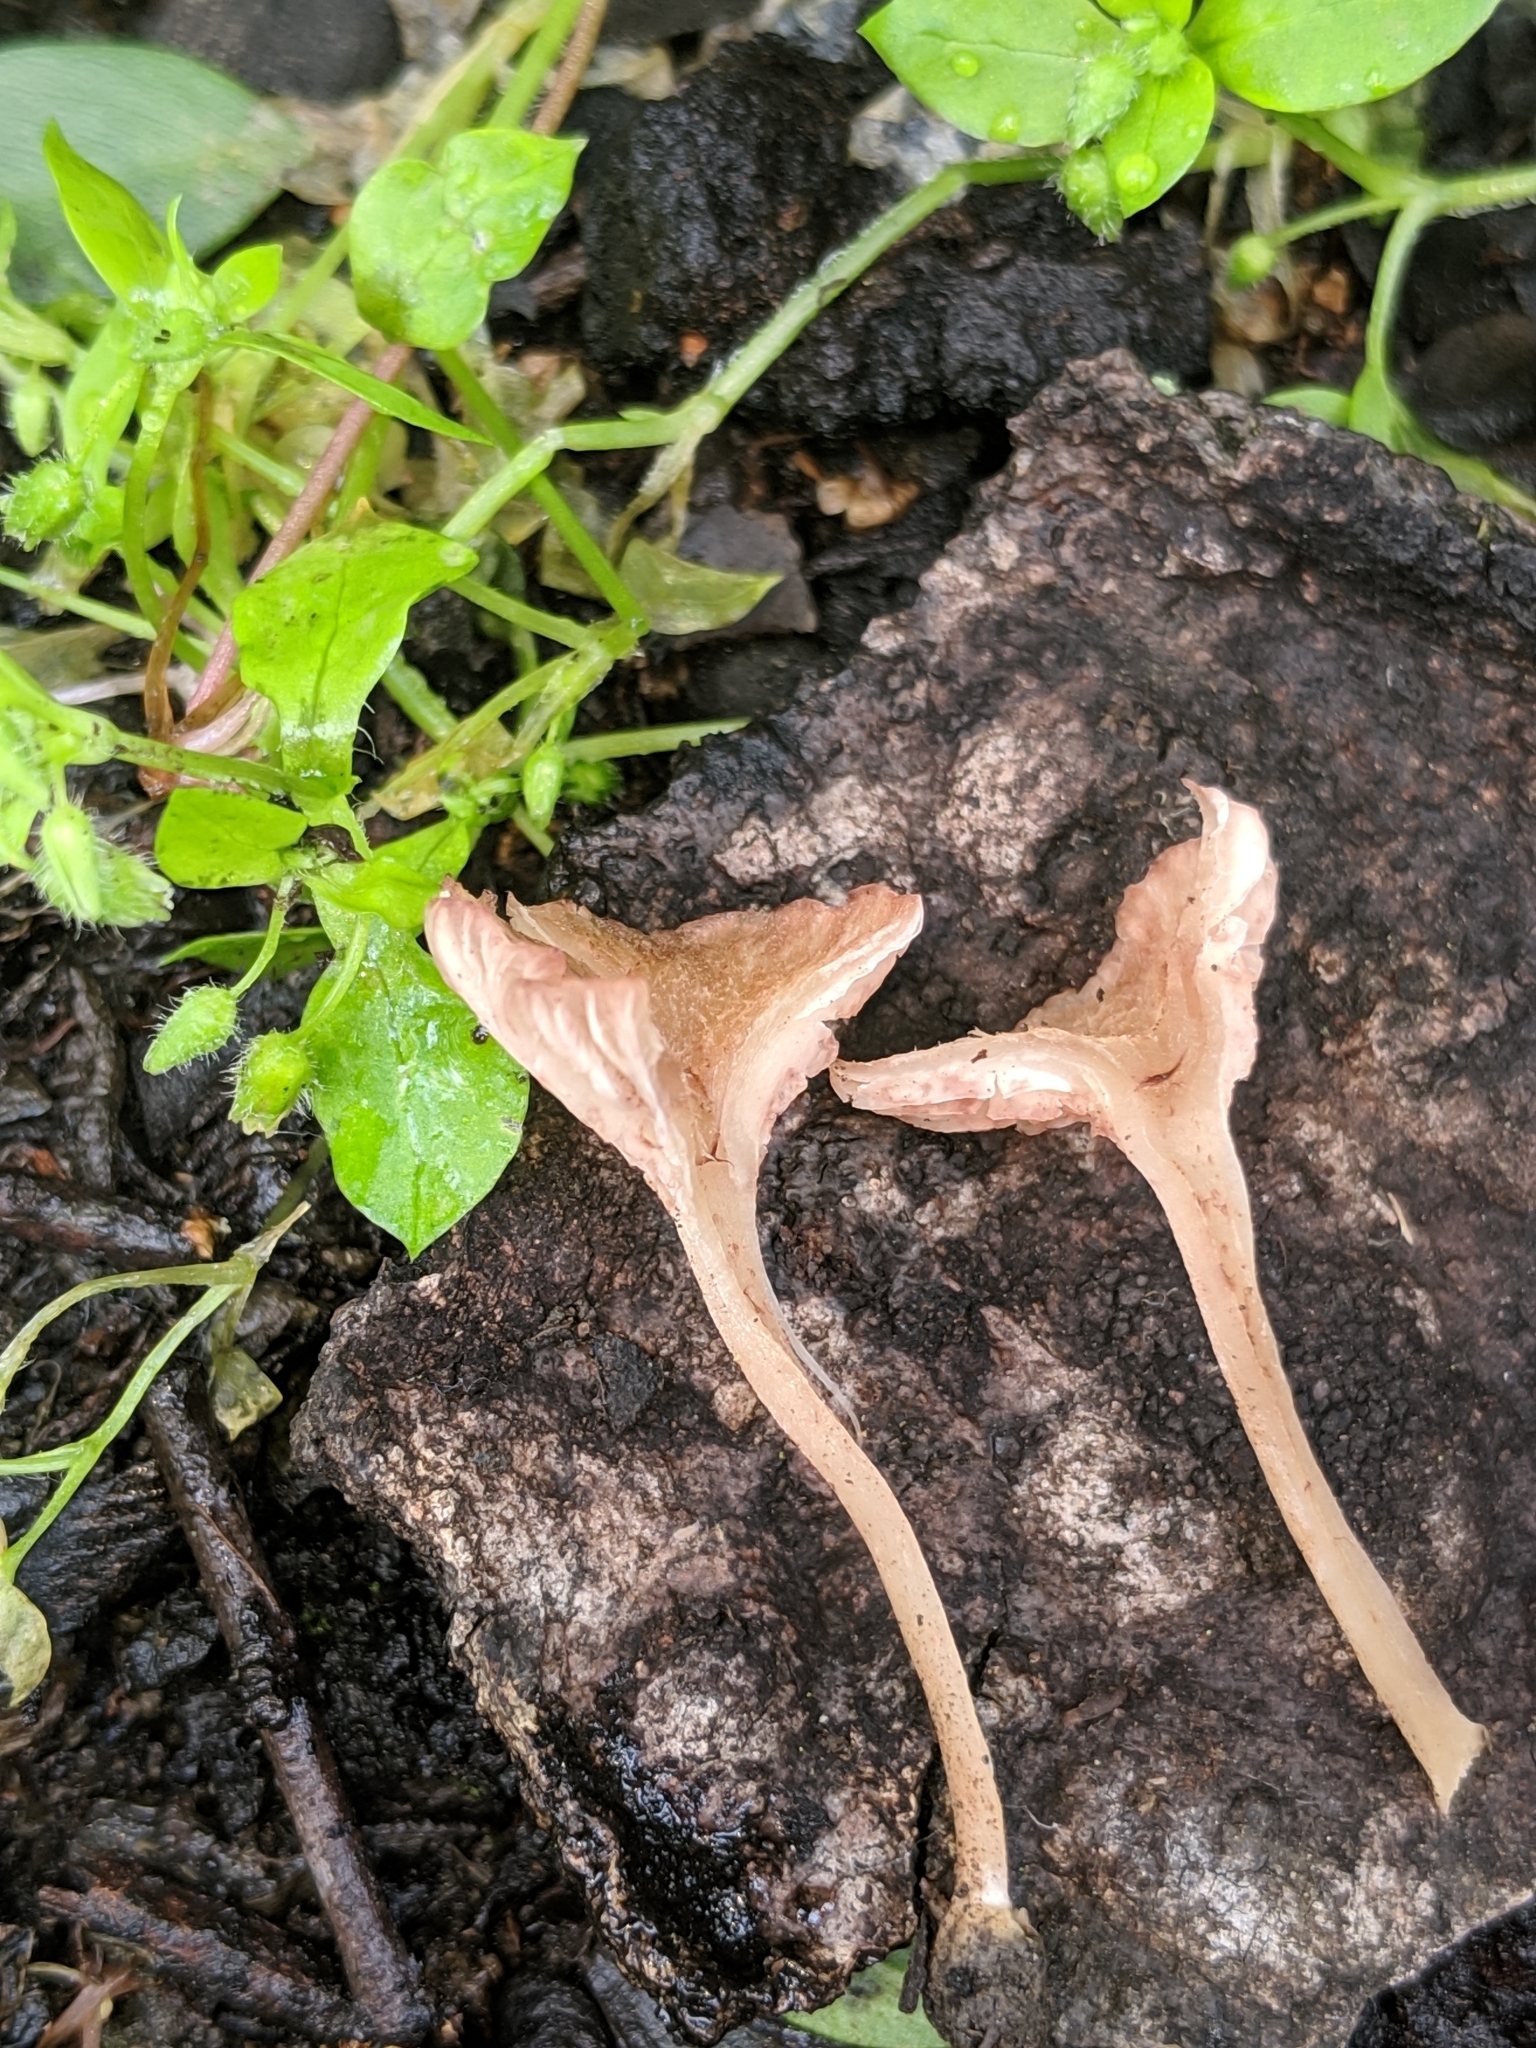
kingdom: Fungi
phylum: Basidiomycota
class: Agaricomycetes
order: Hymenochaetales
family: Rickenellaceae
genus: Contumyces
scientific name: Contumyces rosellus
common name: Rosy navel
